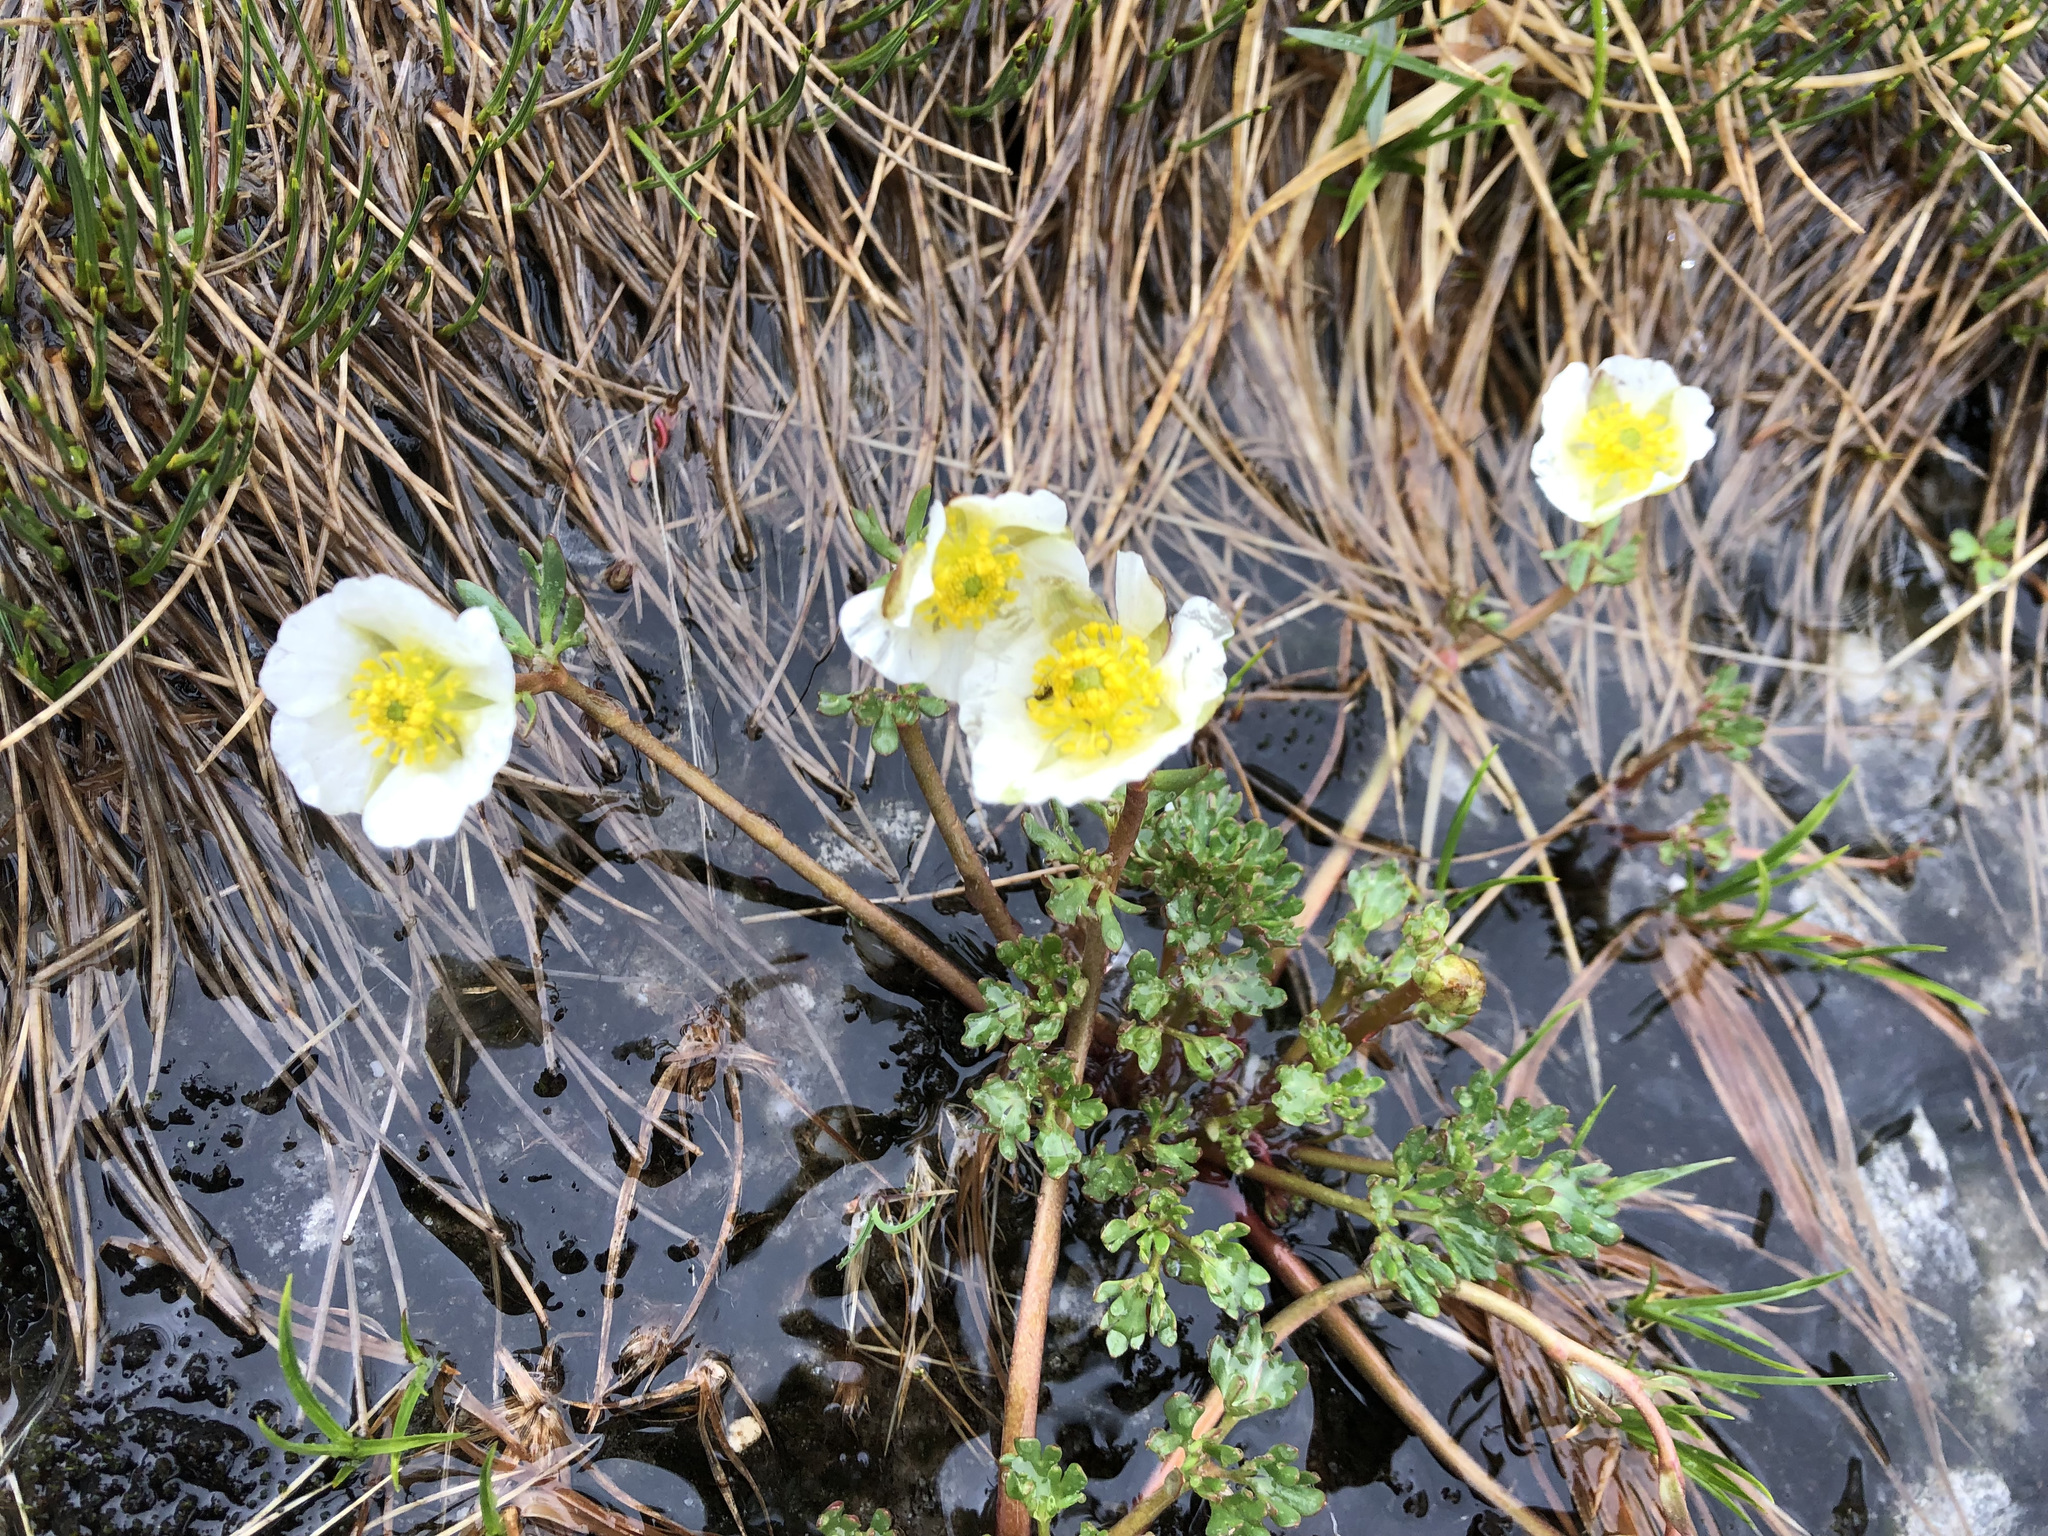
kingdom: Plantae
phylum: Tracheophyta
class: Magnoliopsida
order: Ranunculales
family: Ranunculaceae
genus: Ranunculus
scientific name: Ranunculus glacialis
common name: Glacier buttercup
